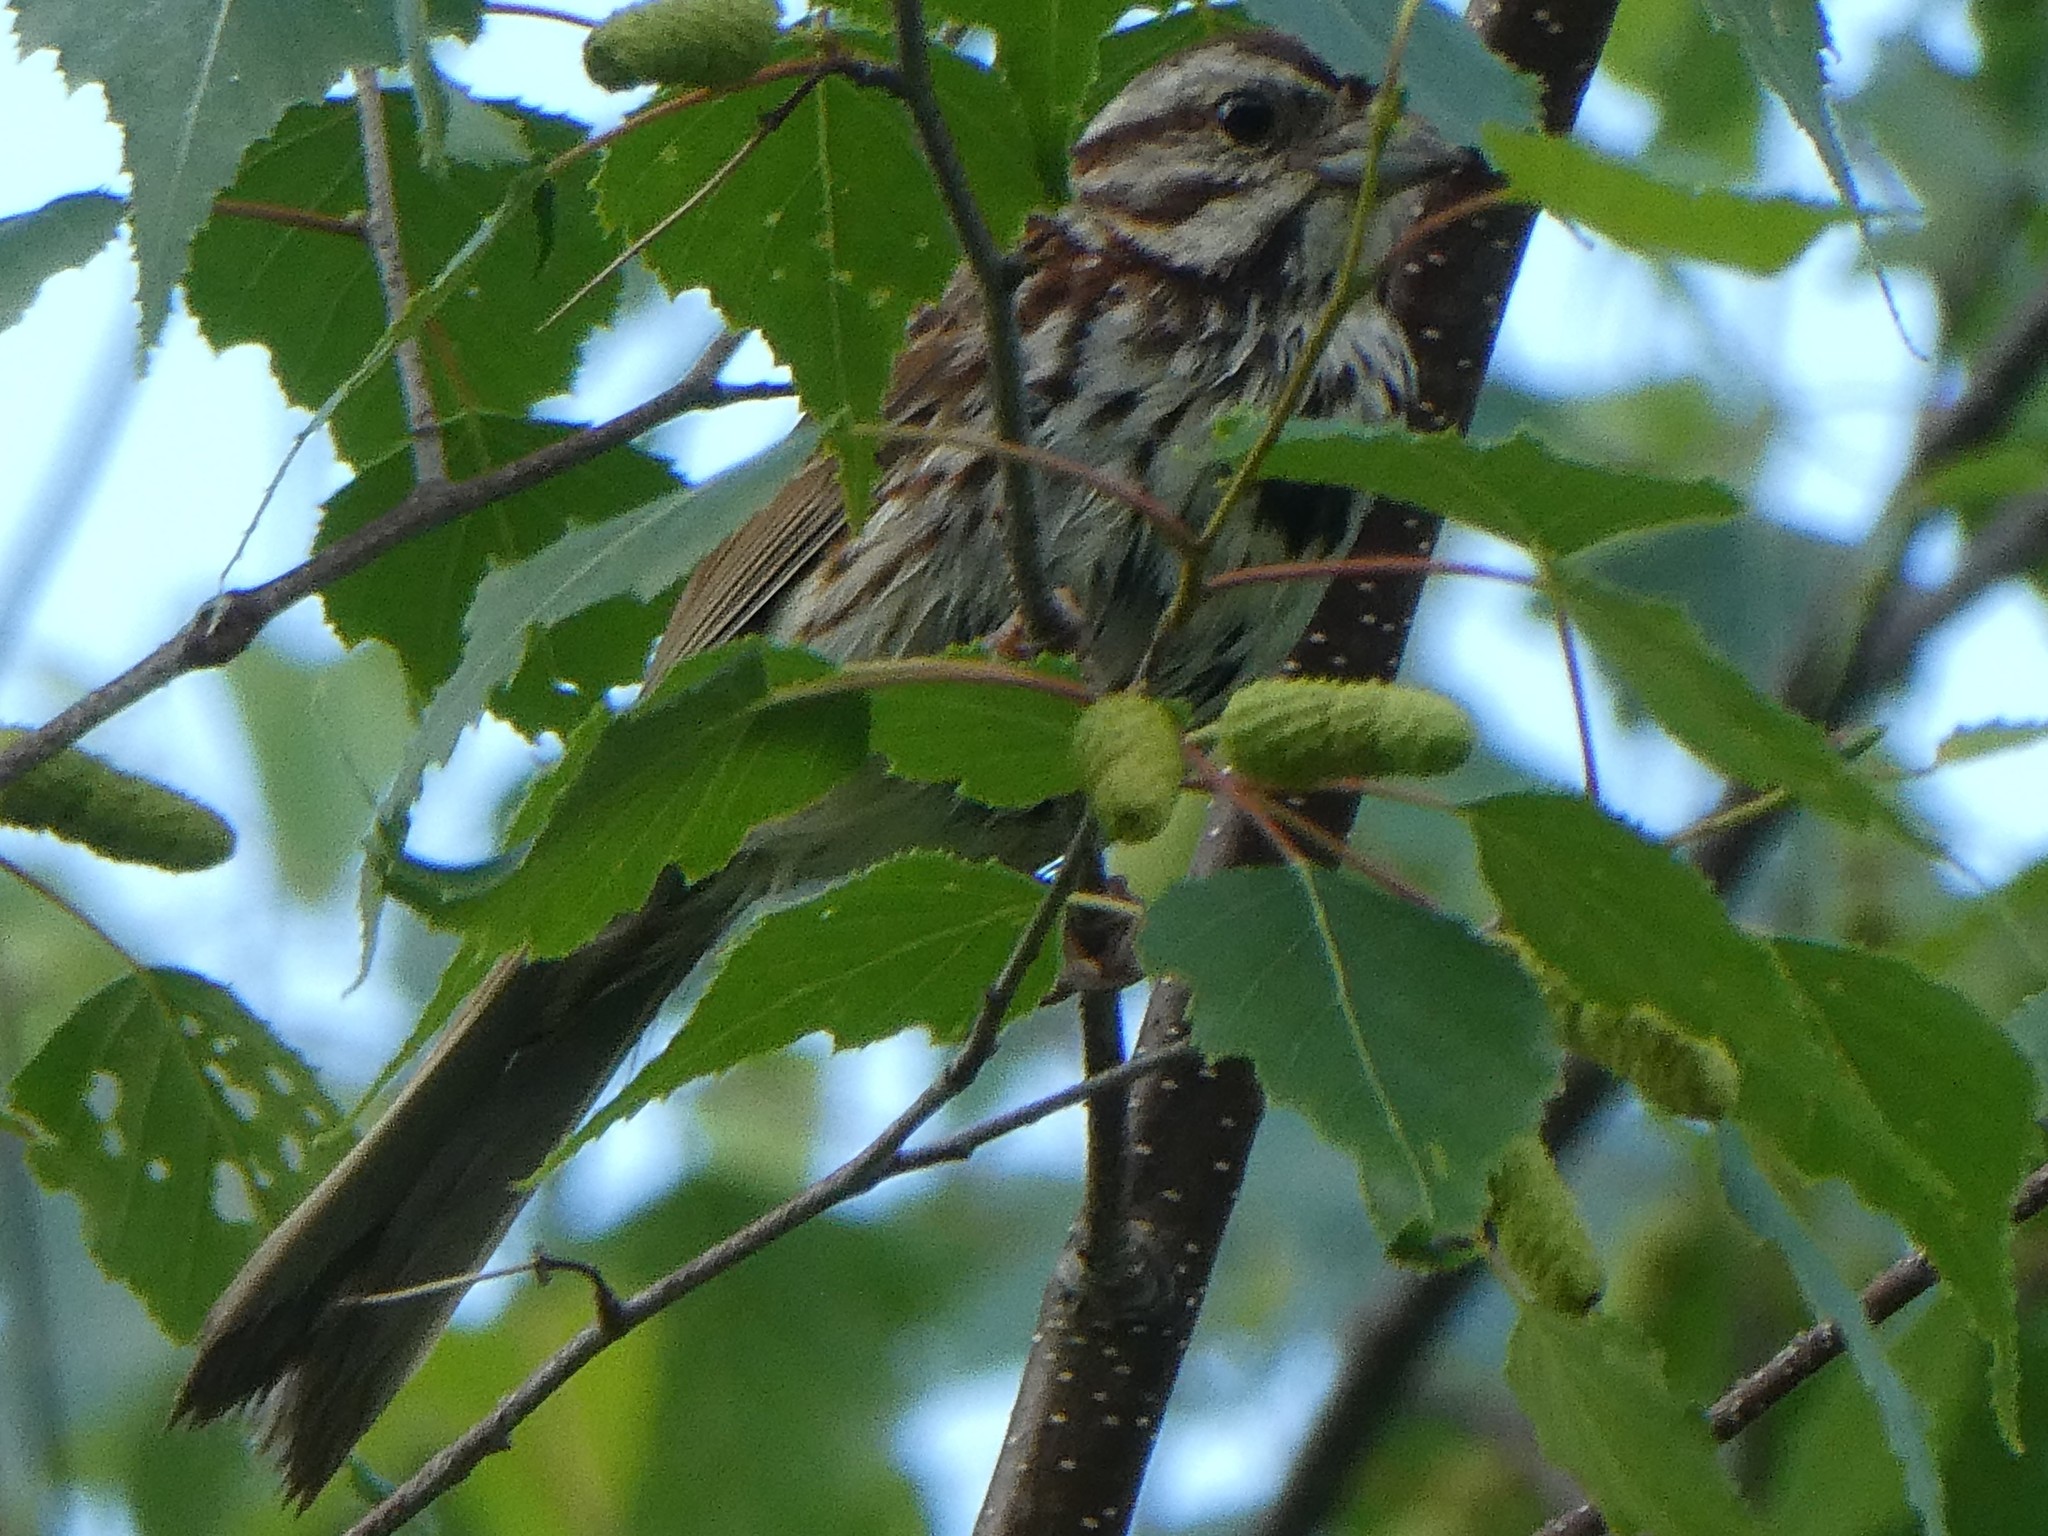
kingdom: Animalia
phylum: Chordata
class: Aves
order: Passeriformes
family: Passerellidae
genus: Melospiza
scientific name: Melospiza melodia
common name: Song sparrow
